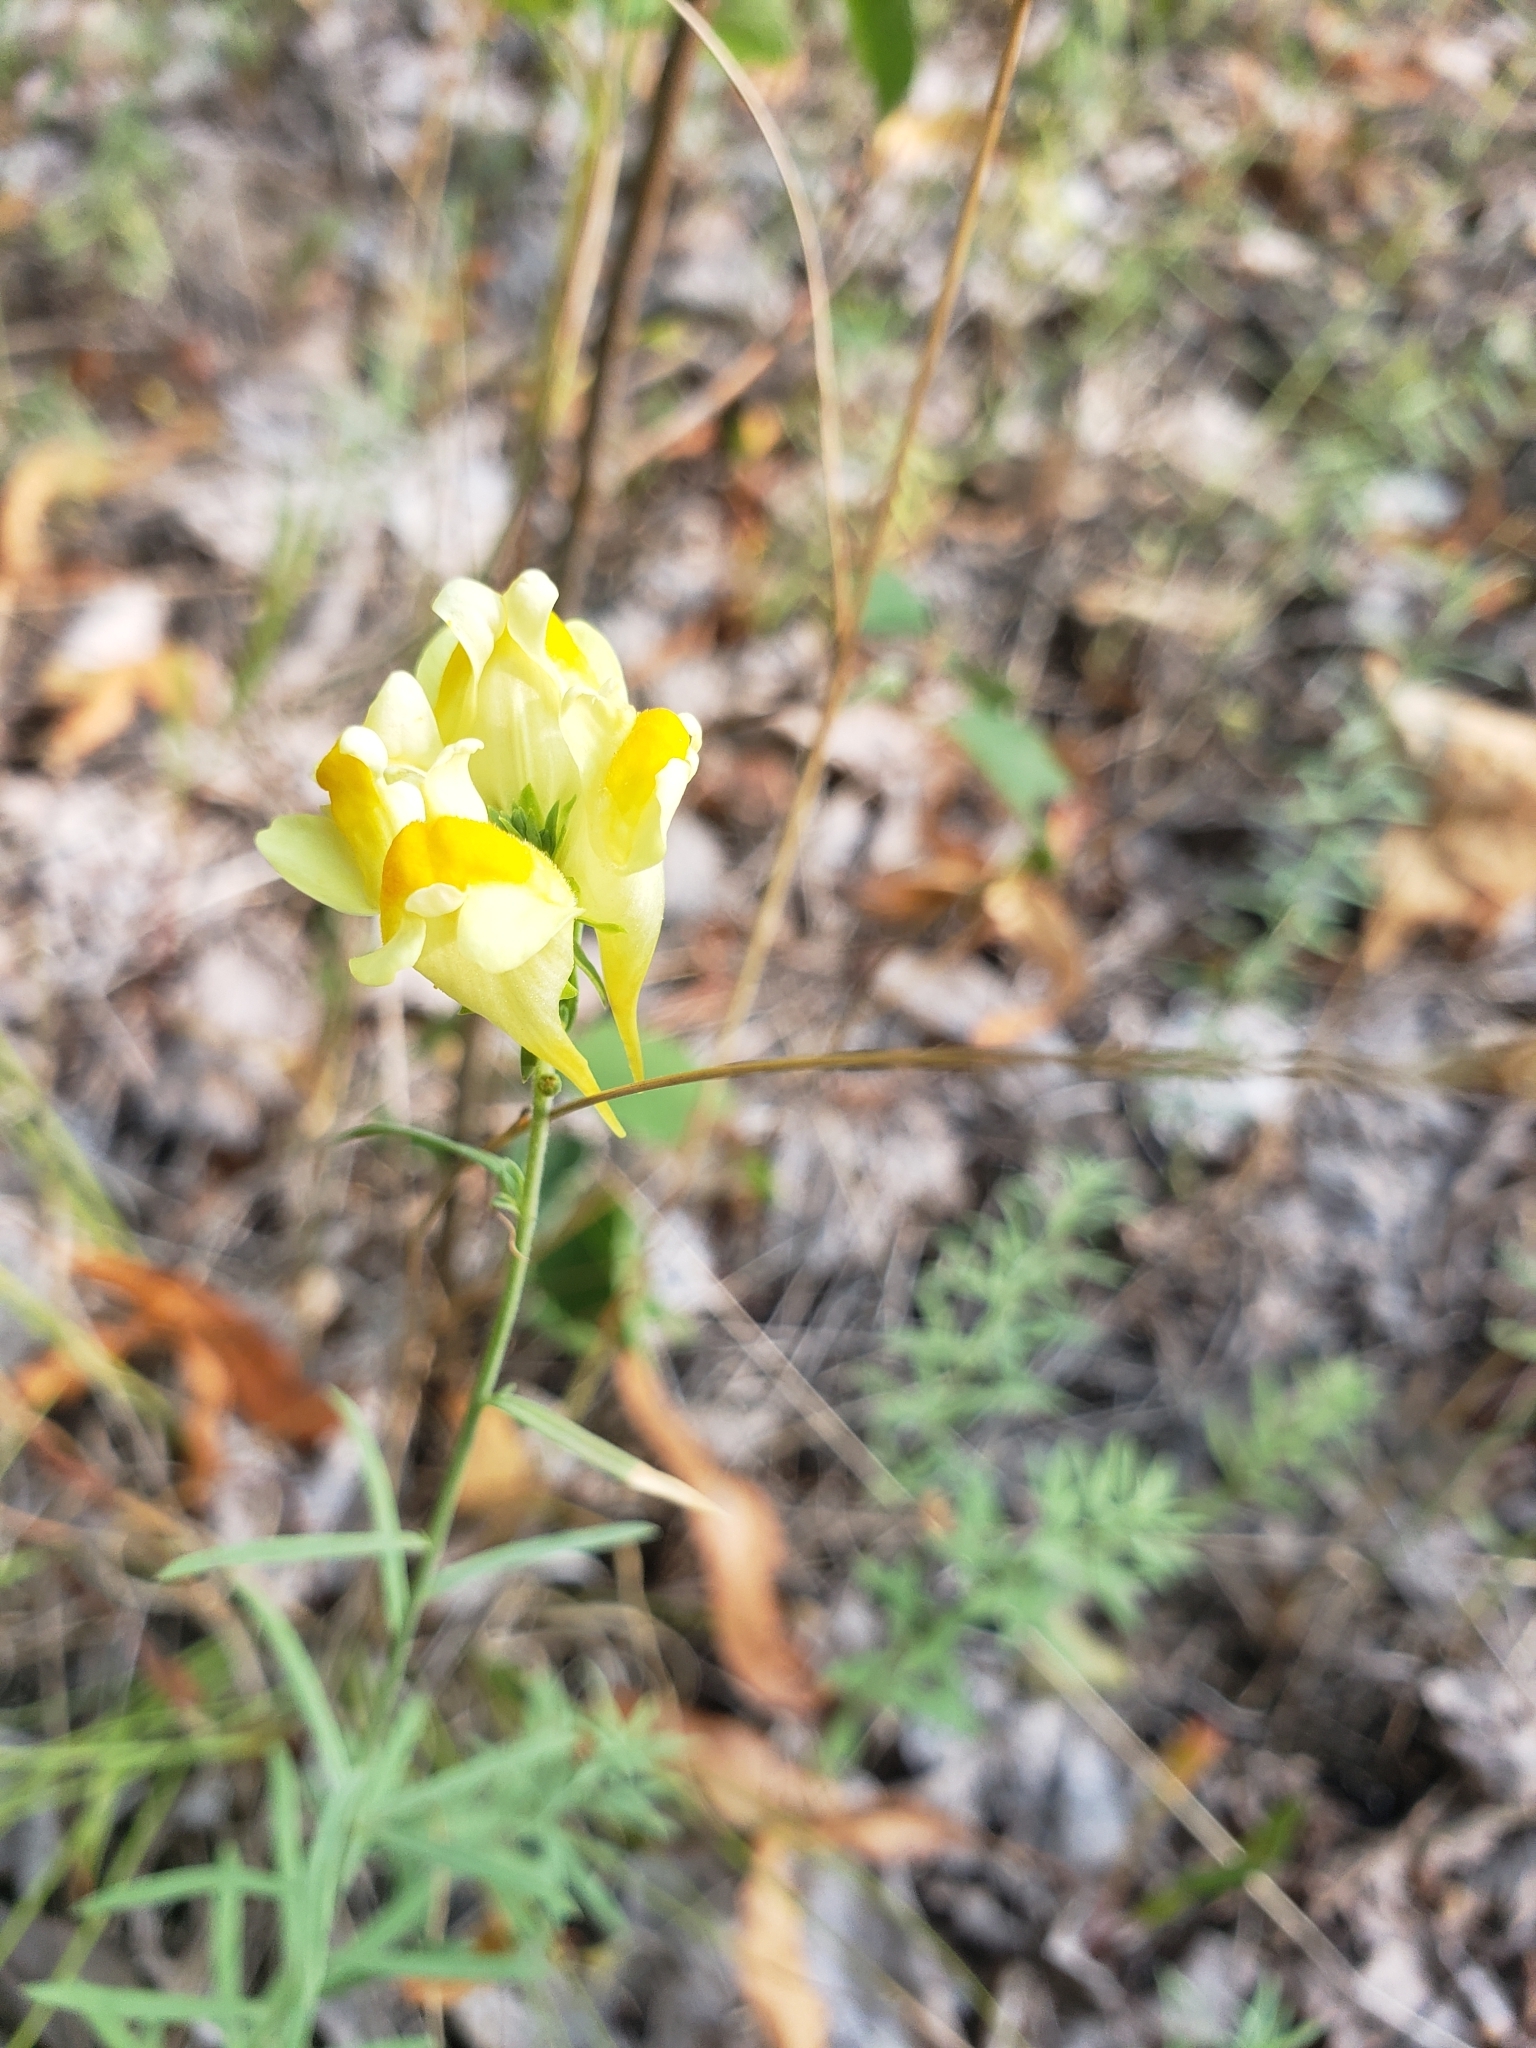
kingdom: Plantae
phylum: Tracheophyta
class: Magnoliopsida
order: Lamiales
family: Plantaginaceae
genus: Linaria
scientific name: Linaria vulgaris
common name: Butter and eggs
